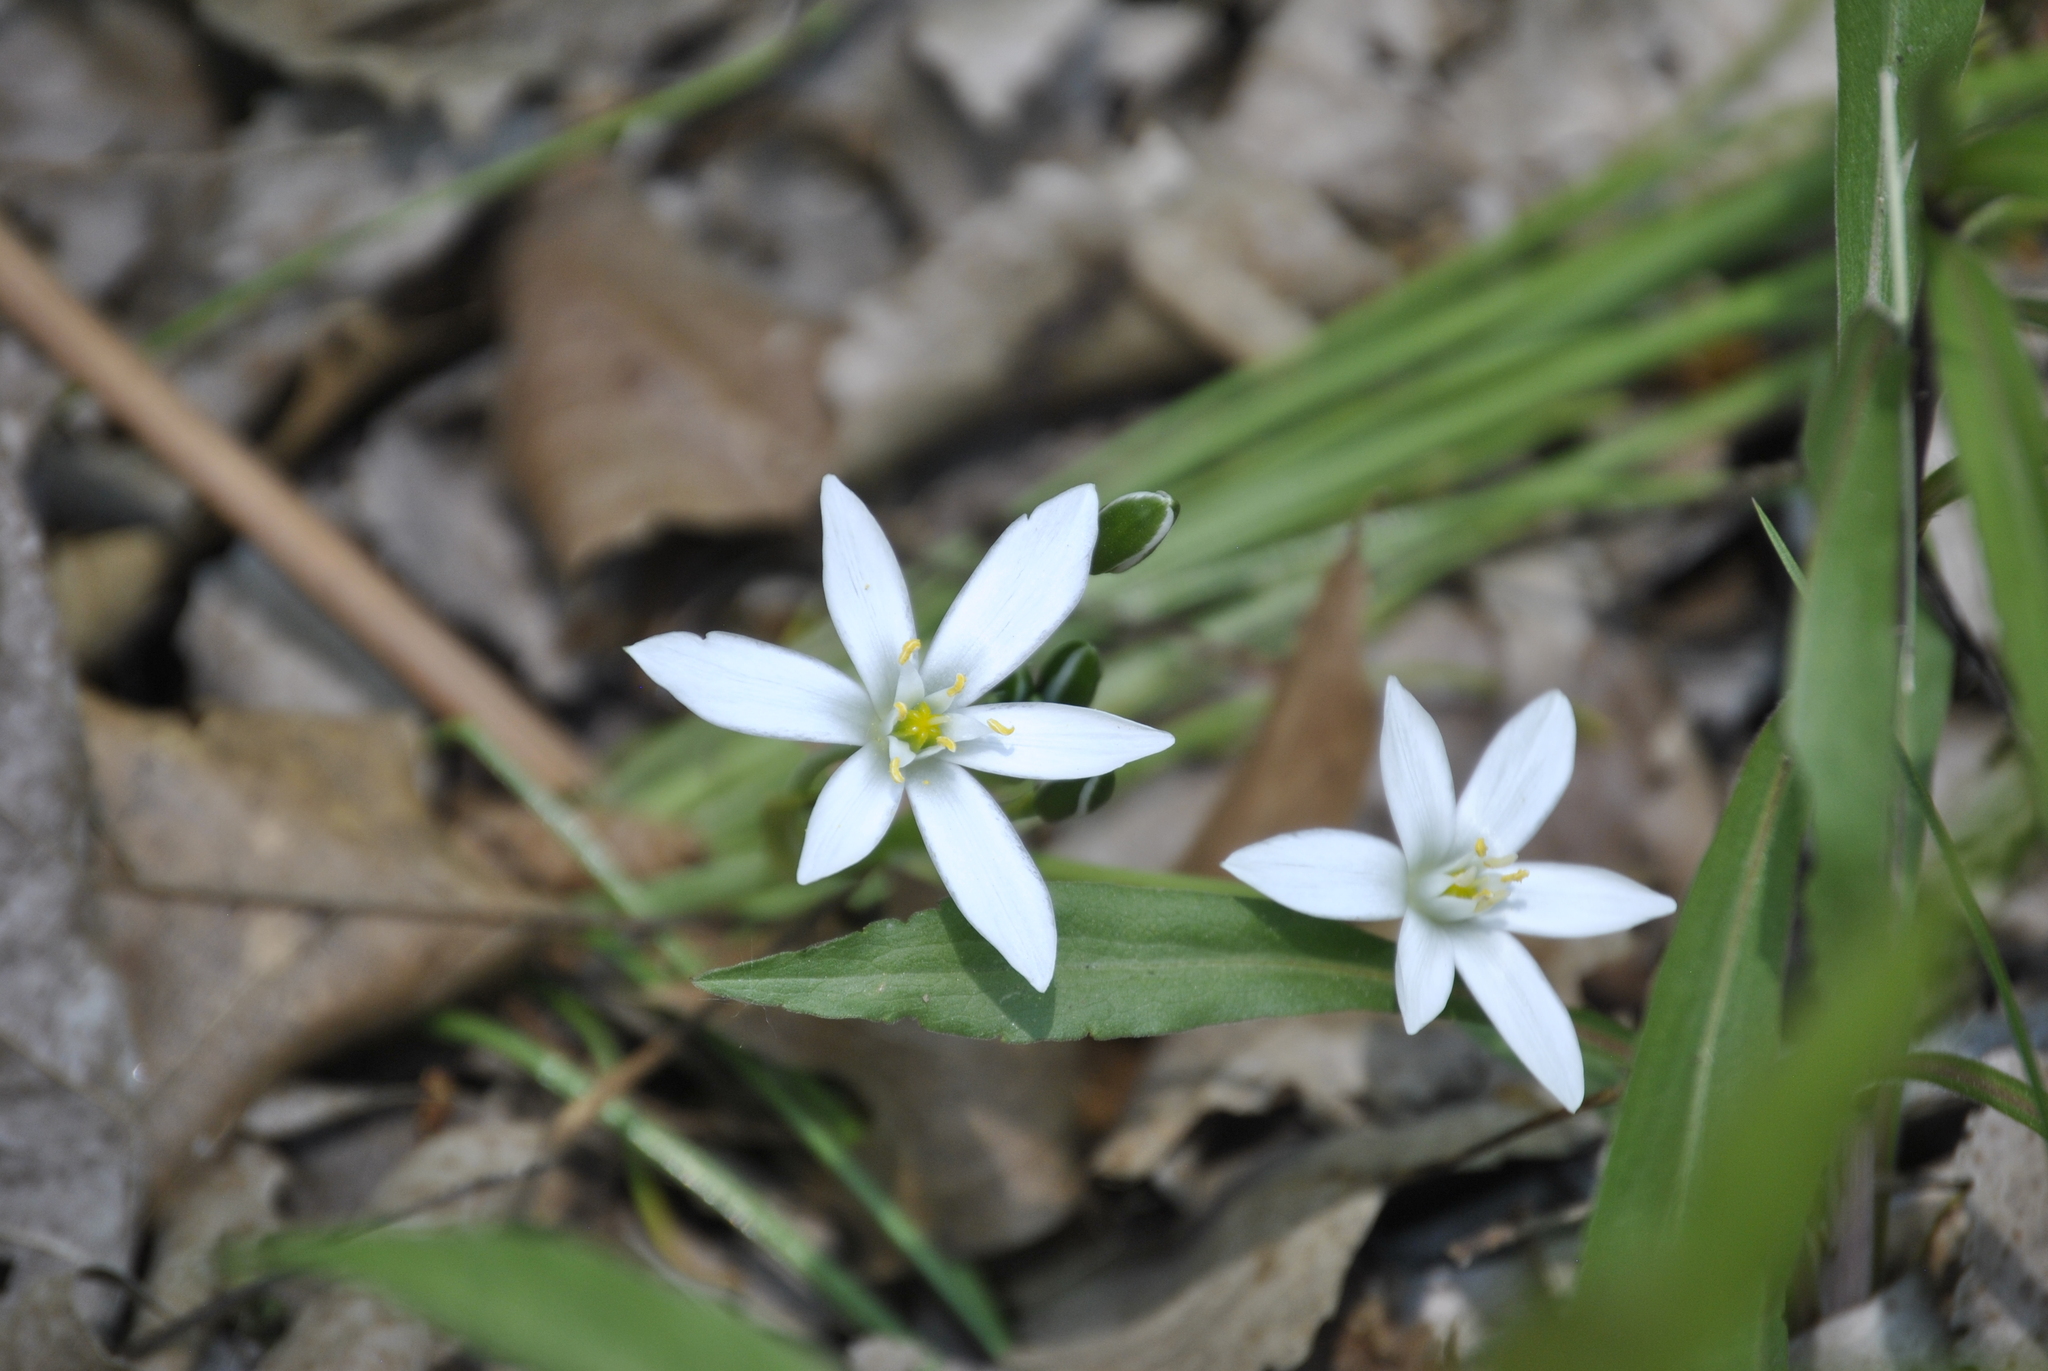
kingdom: Plantae
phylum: Tracheophyta
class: Liliopsida
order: Asparagales
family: Asparagaceae
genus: Ornithogalum
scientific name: Ornithogalum umbellatum
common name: Garden star-of-bethlehem
